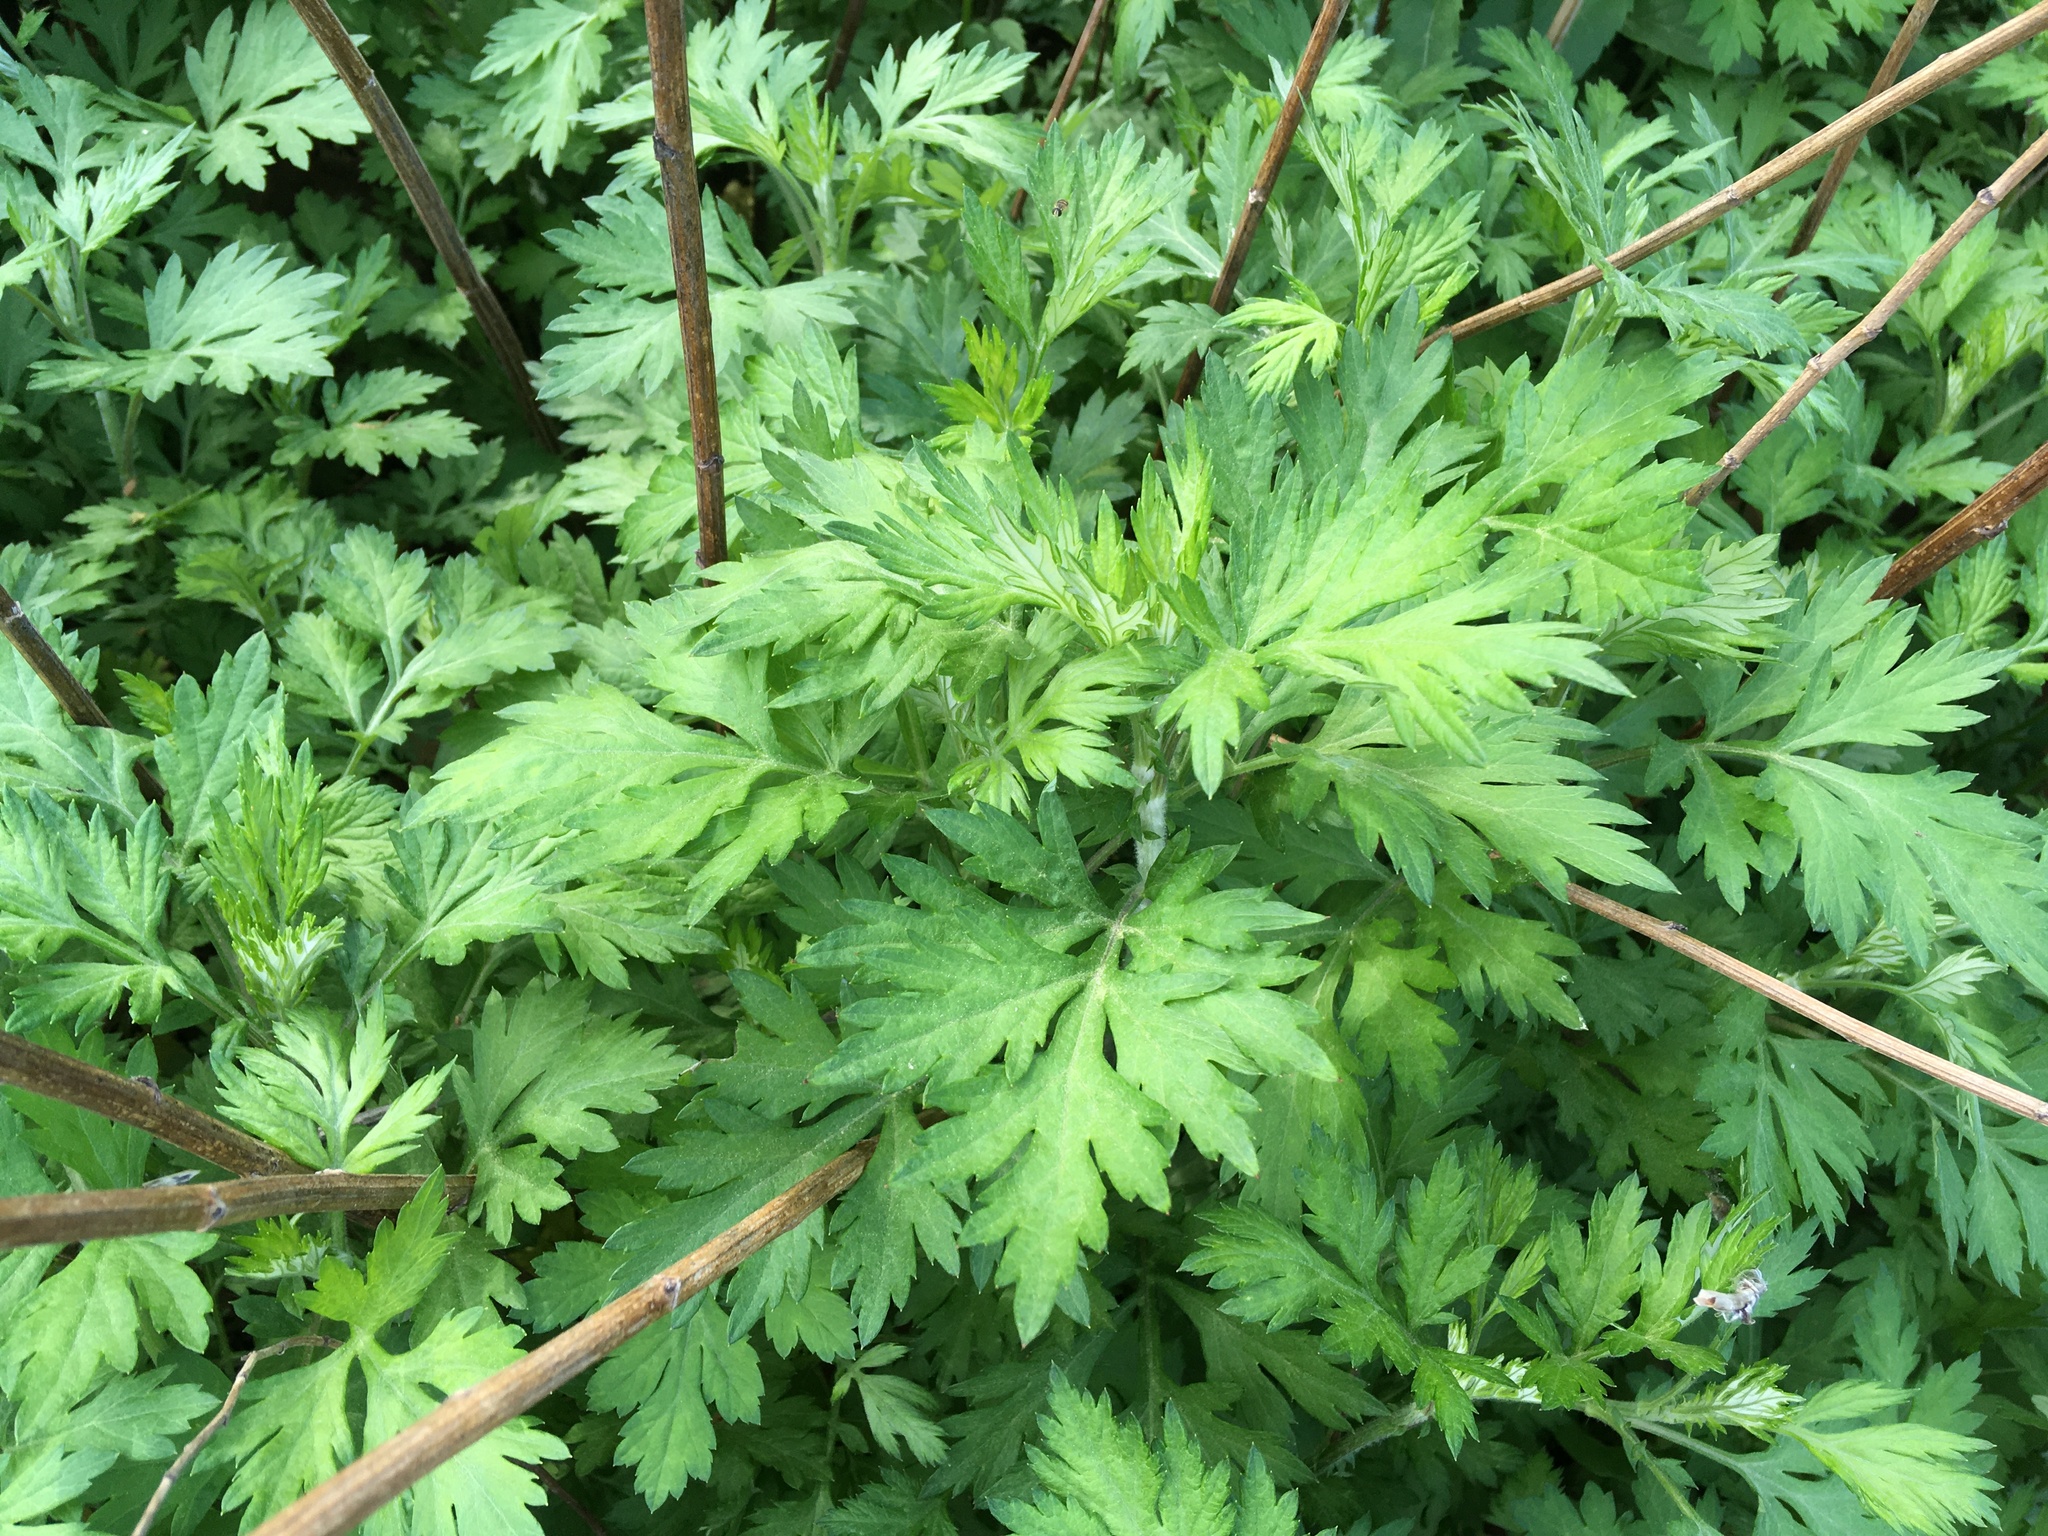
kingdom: Plantae
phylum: Tracheophyta
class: Magnoliopsida
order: Asterales
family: Asteraceae
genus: Artemisia
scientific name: Artemisia vulgaris
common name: Mugwort
